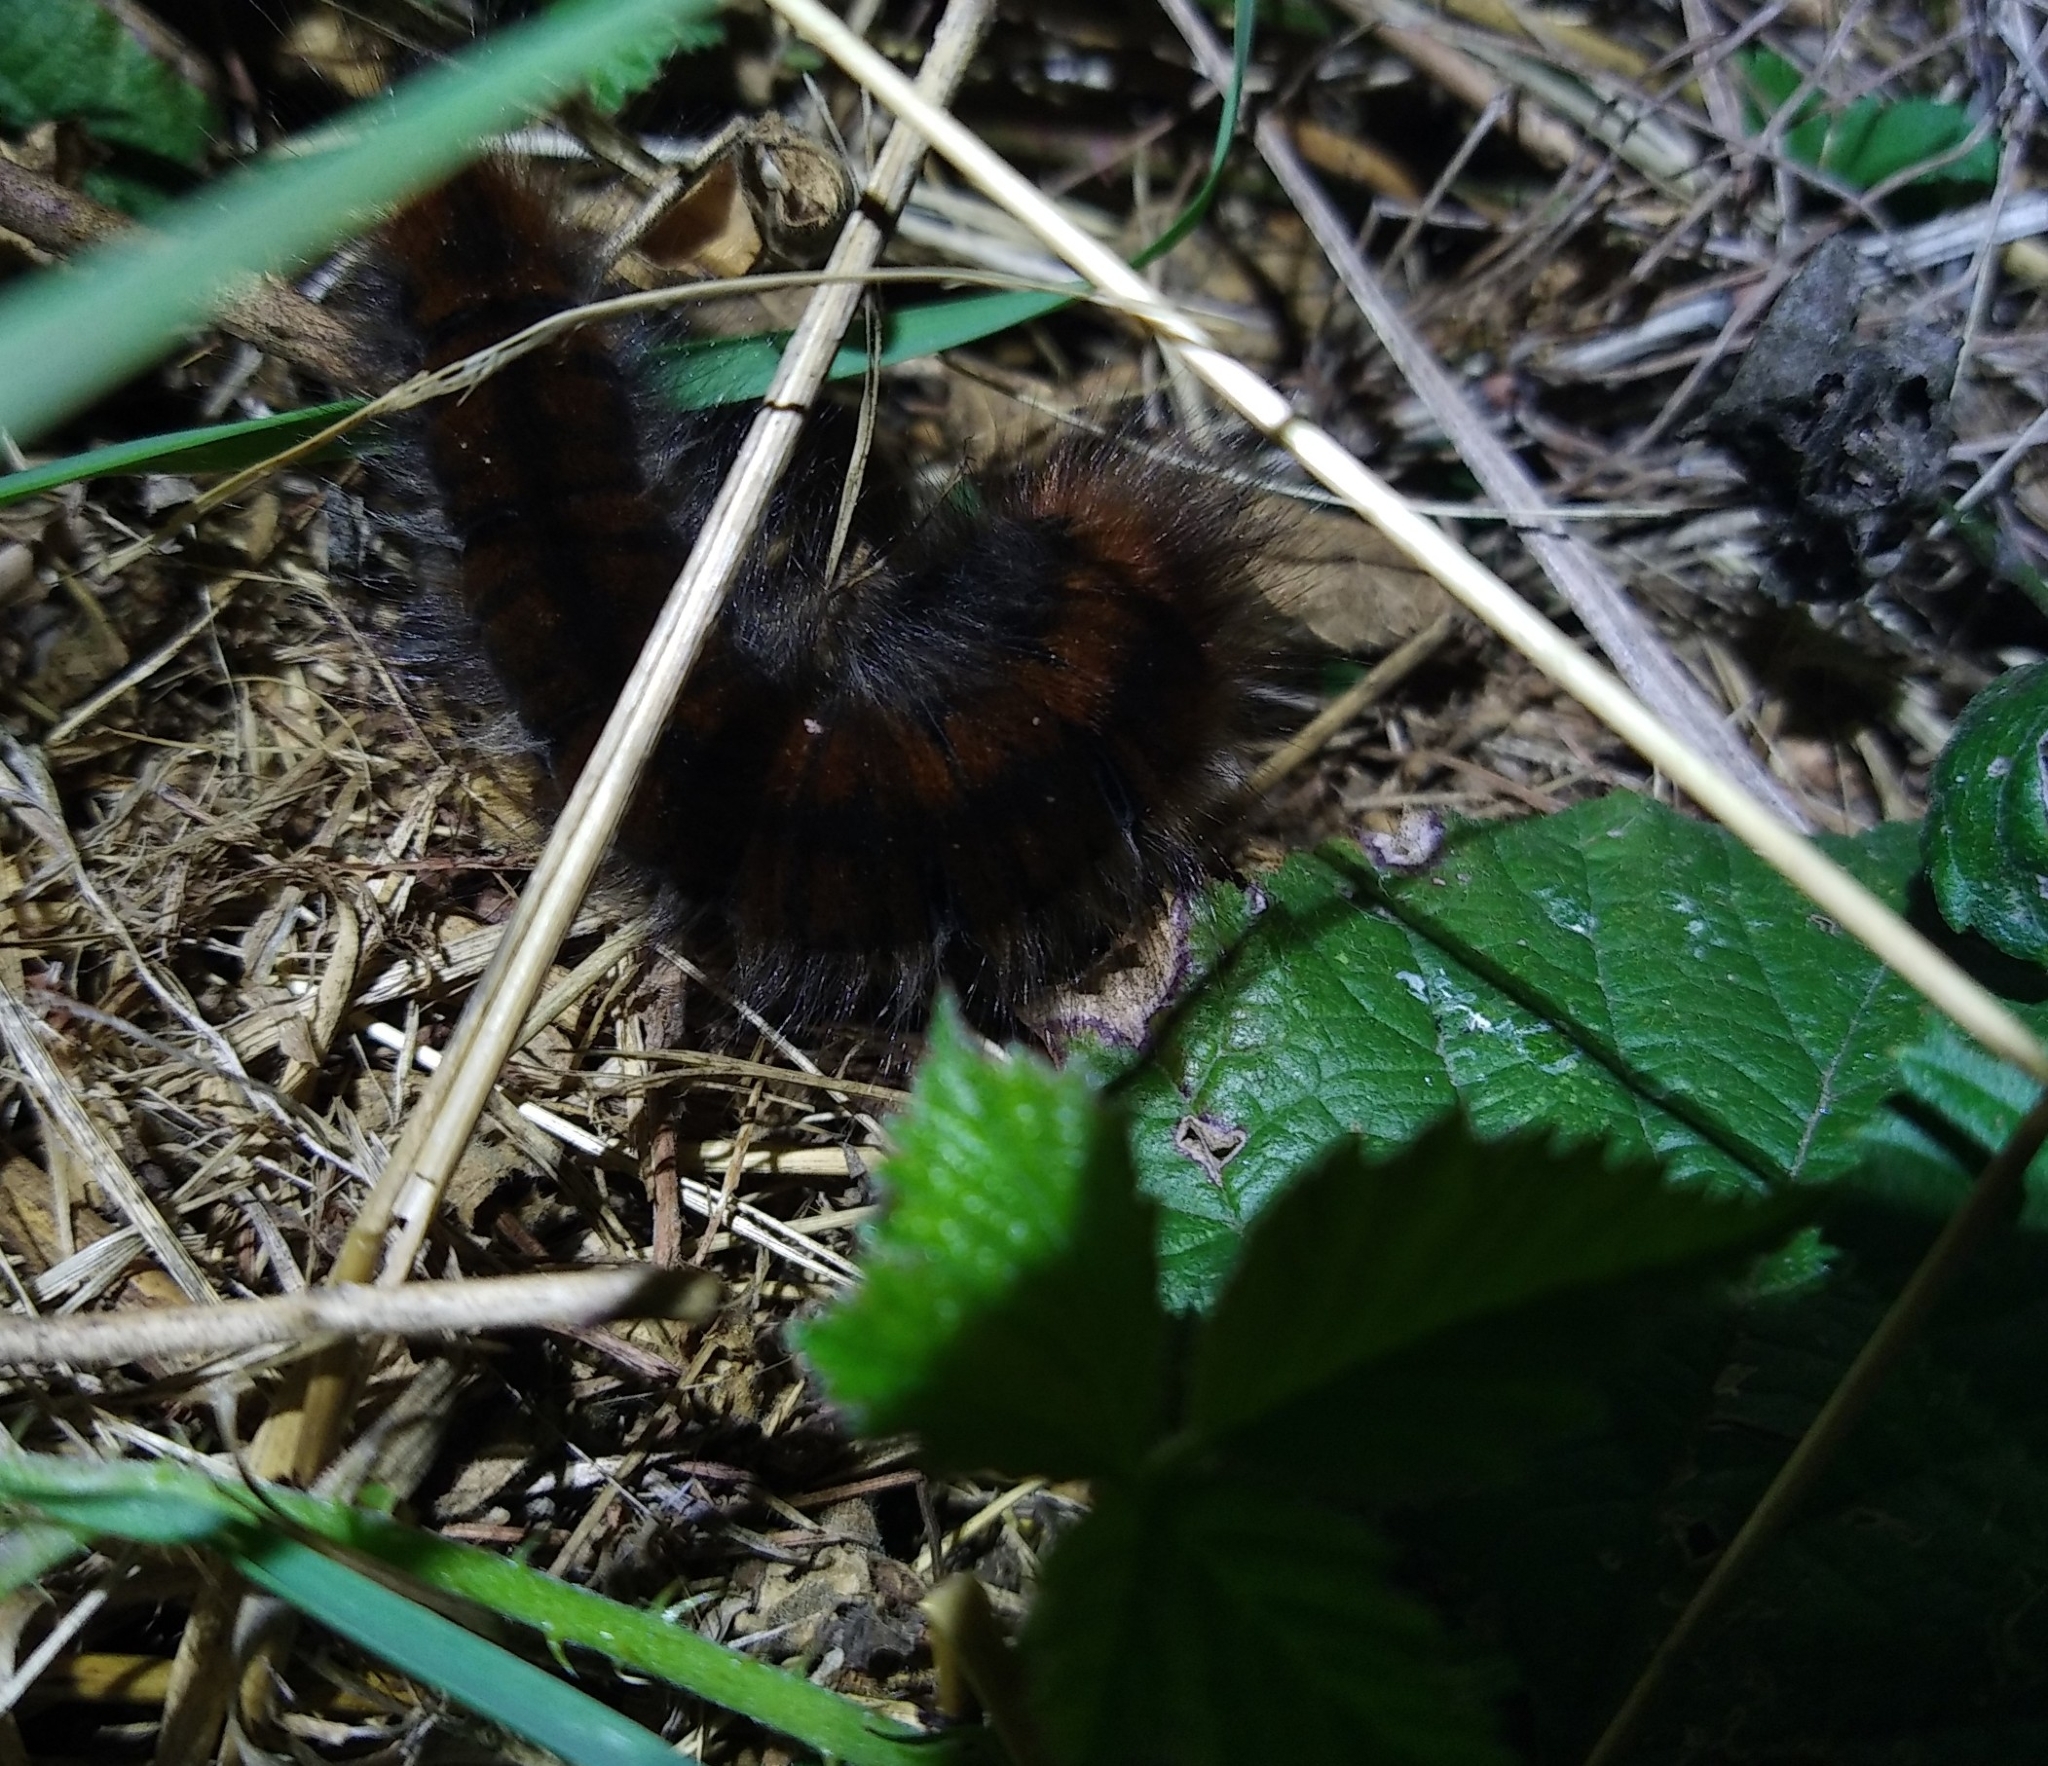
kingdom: Animalia
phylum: Arthropoda
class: Insecta
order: Lepidoptera
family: Lasiocampidae
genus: Macrothylacia
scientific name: Macrothylacia rubi
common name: Fox moth
